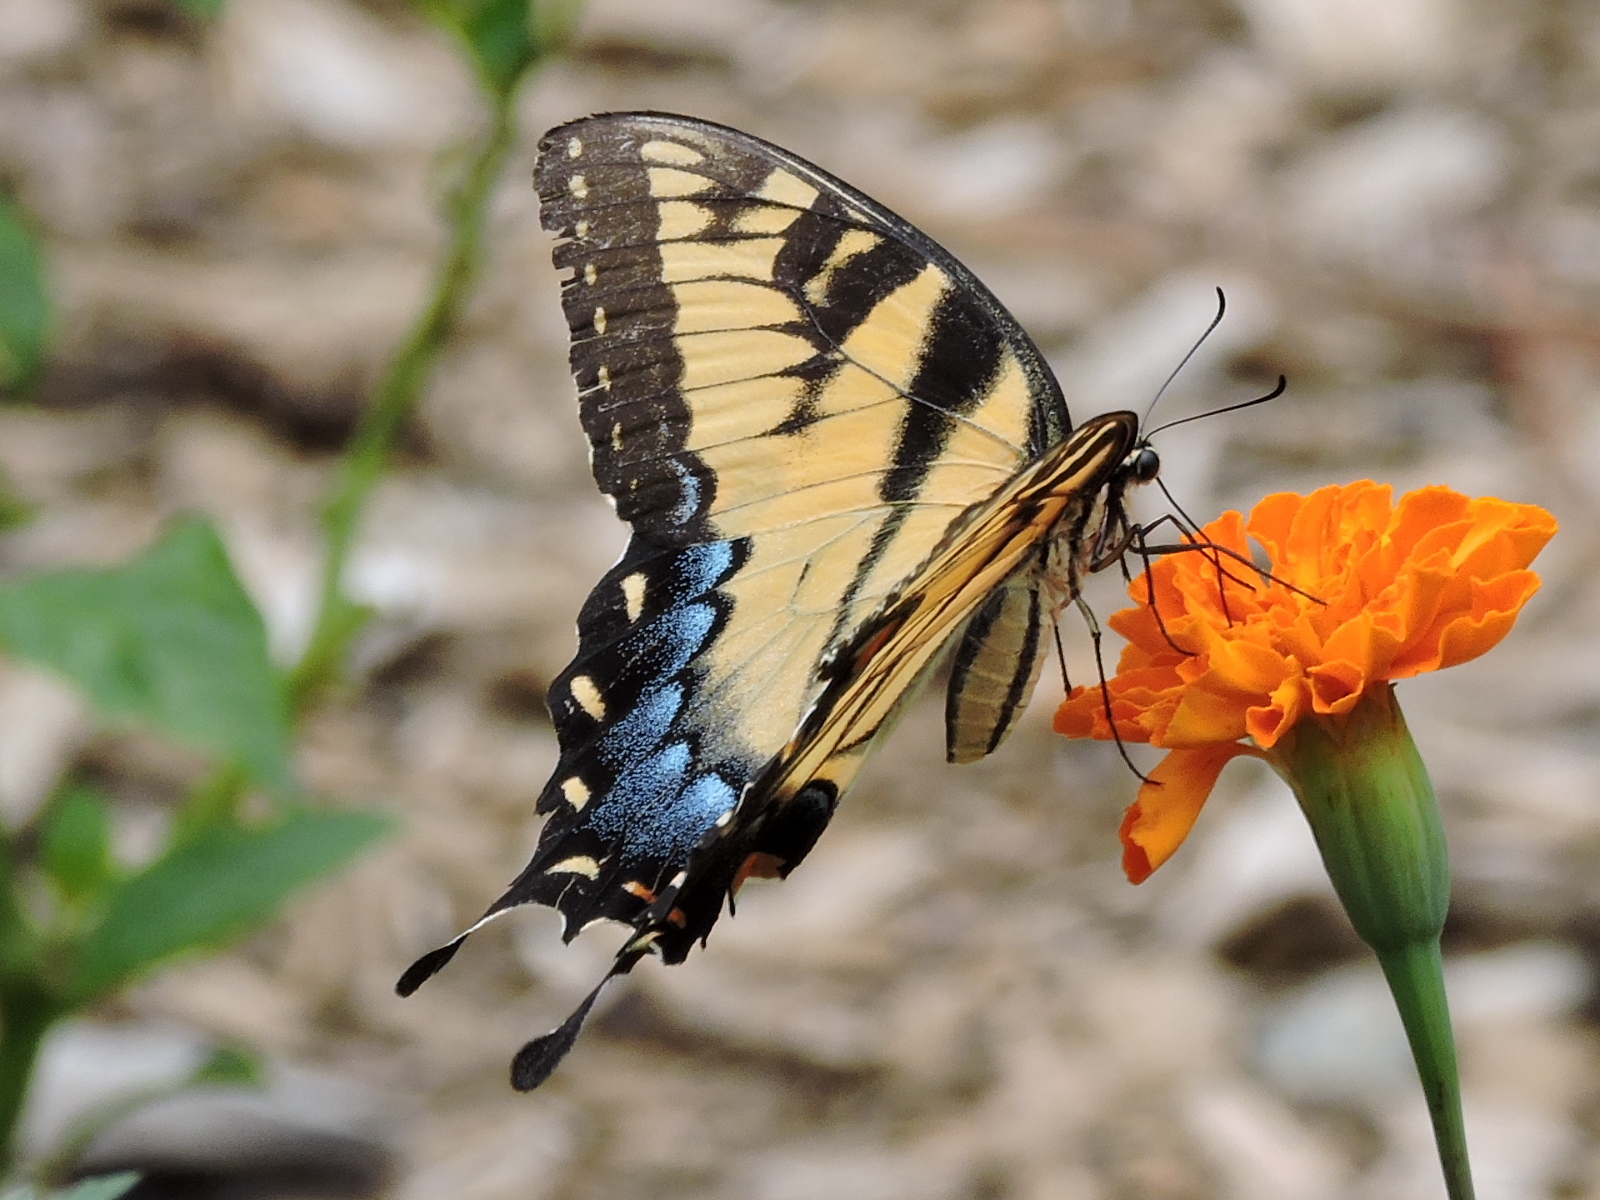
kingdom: Animalia
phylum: Arthropoda
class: Insecta
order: Lepidoptera
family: Papilionidae
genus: Papilio
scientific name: Papilio glaucus
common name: Tiger swallowtail
